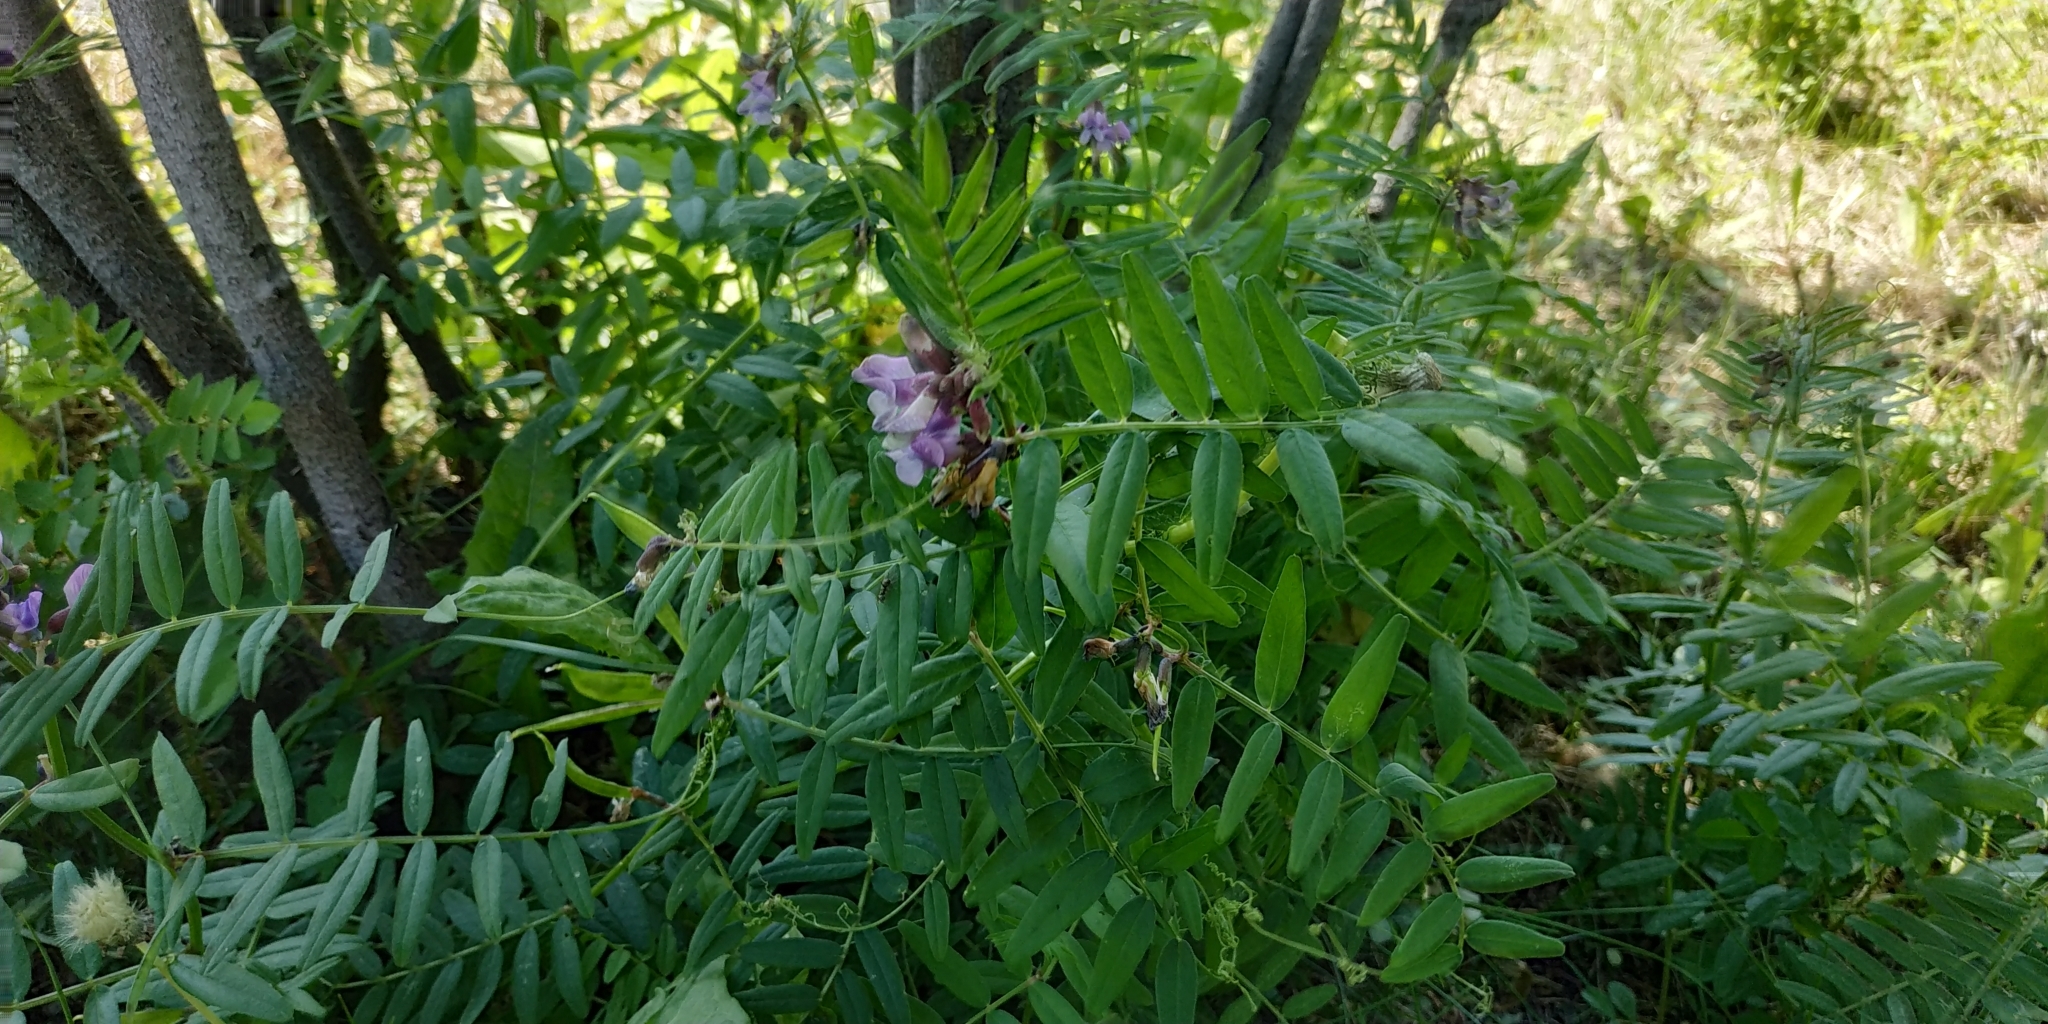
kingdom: Plantae
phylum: Tracheophyta
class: Magnoliopsida
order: Fabales
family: Fabaceae
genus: Vicia
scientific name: Vicia sepium
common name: Bush vetch
